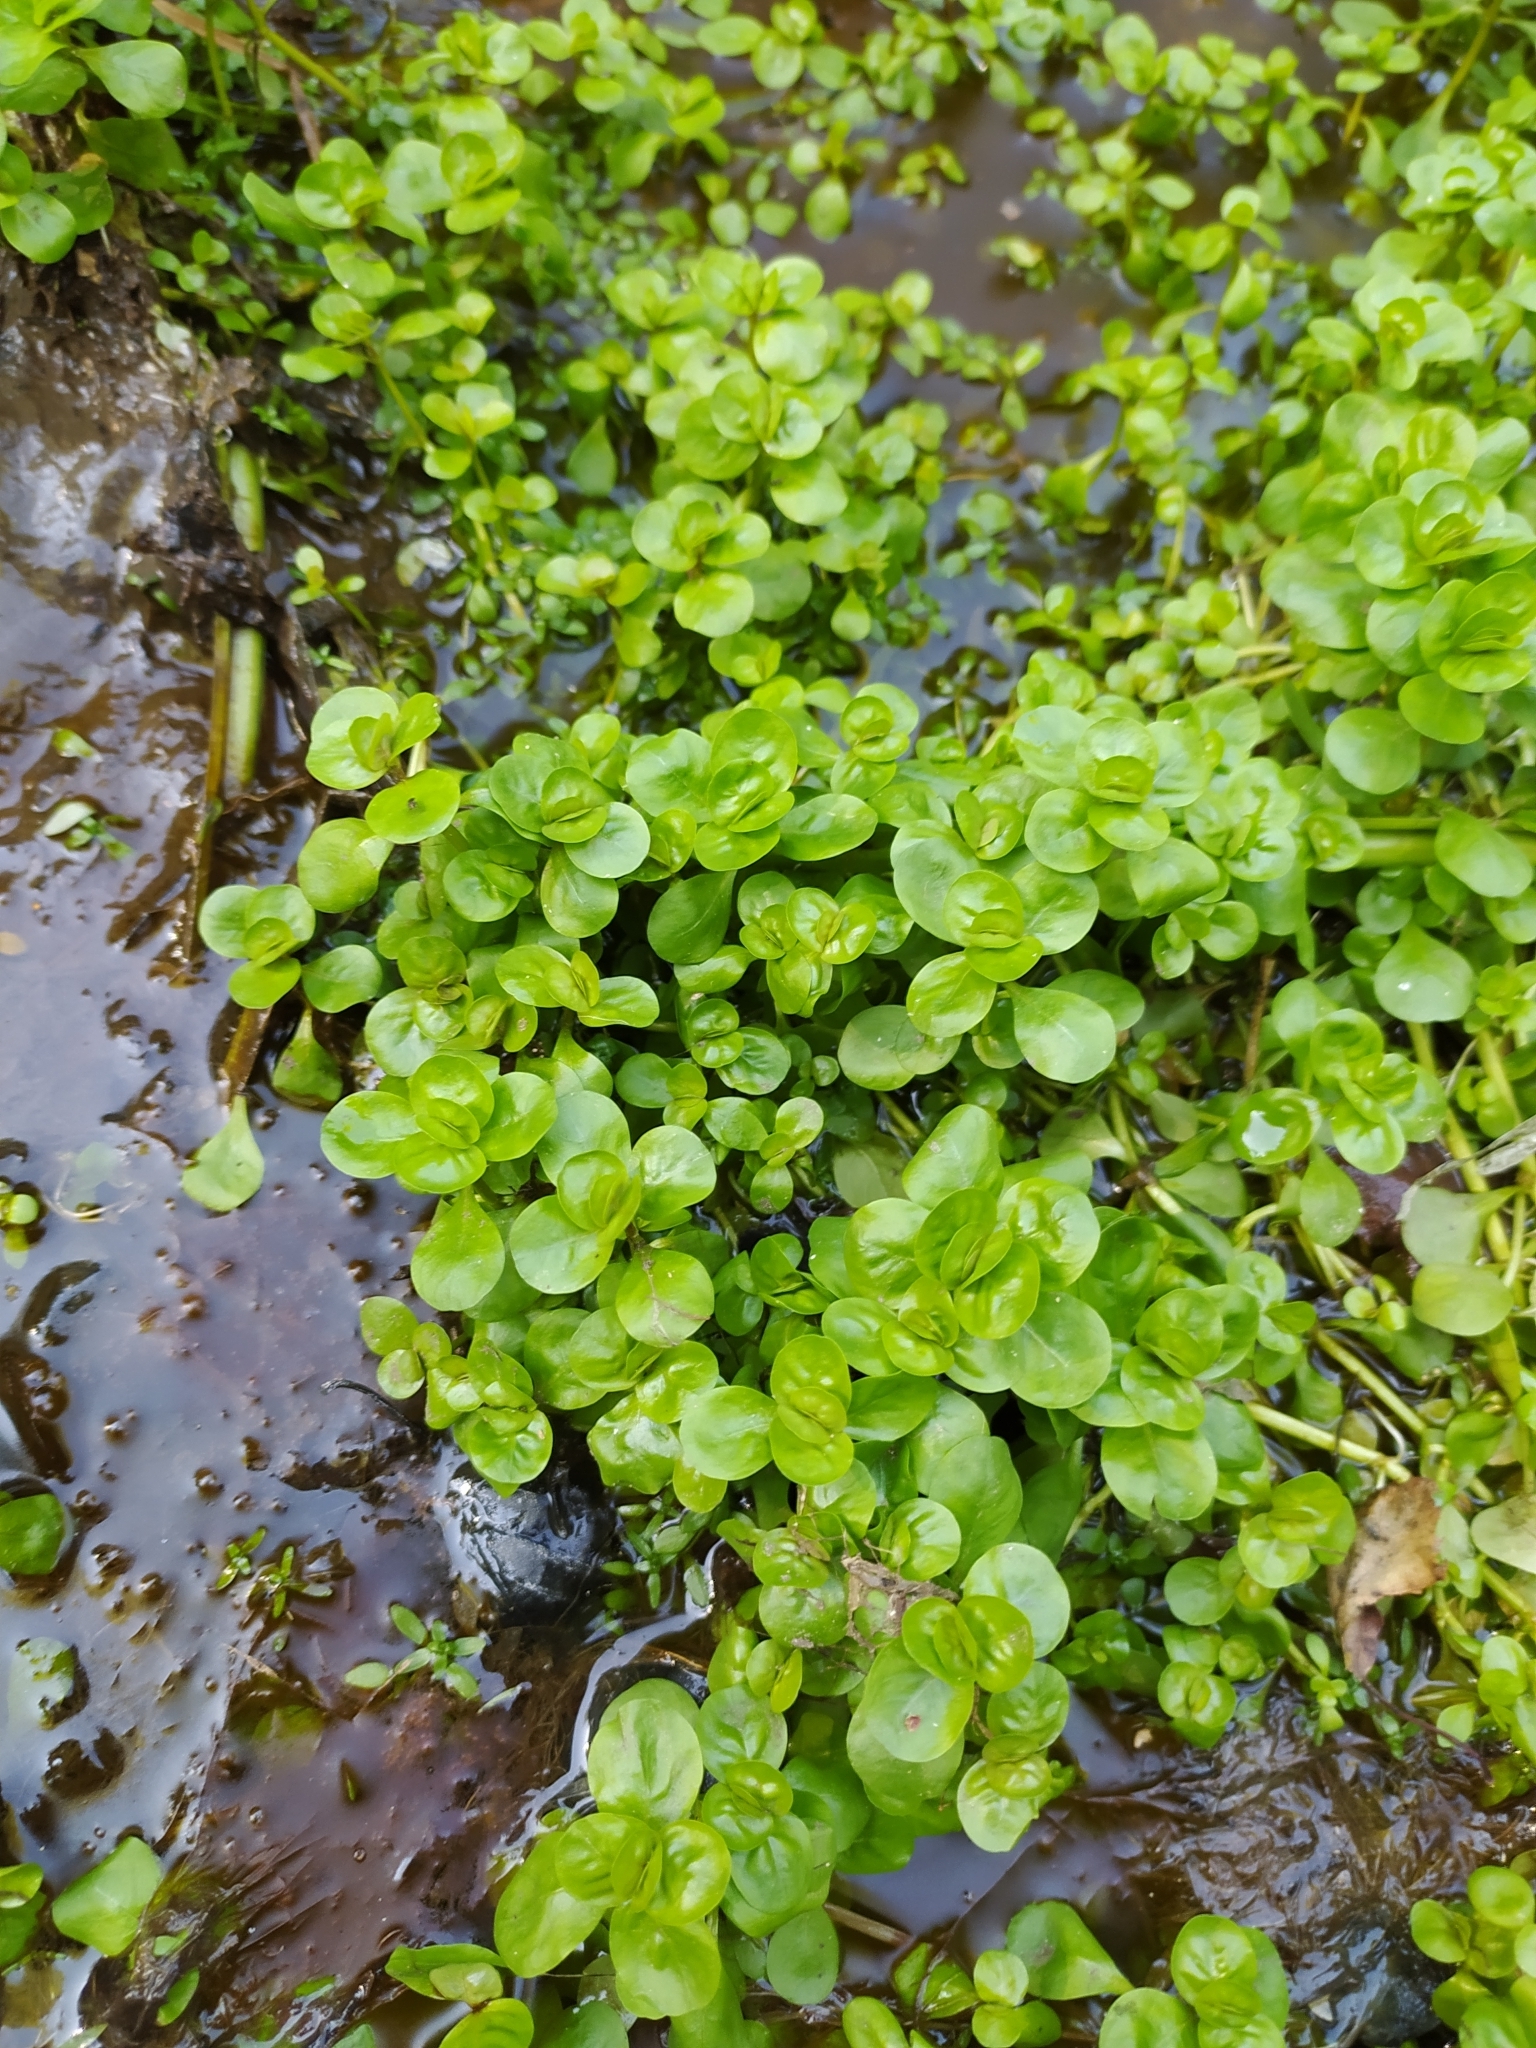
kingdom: Plantae
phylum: Tracheophyta
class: Magnoliopsida
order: Lamiales
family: Plantaginaceae
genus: Veronica
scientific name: Veronica beccabunga
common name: Brooklime
